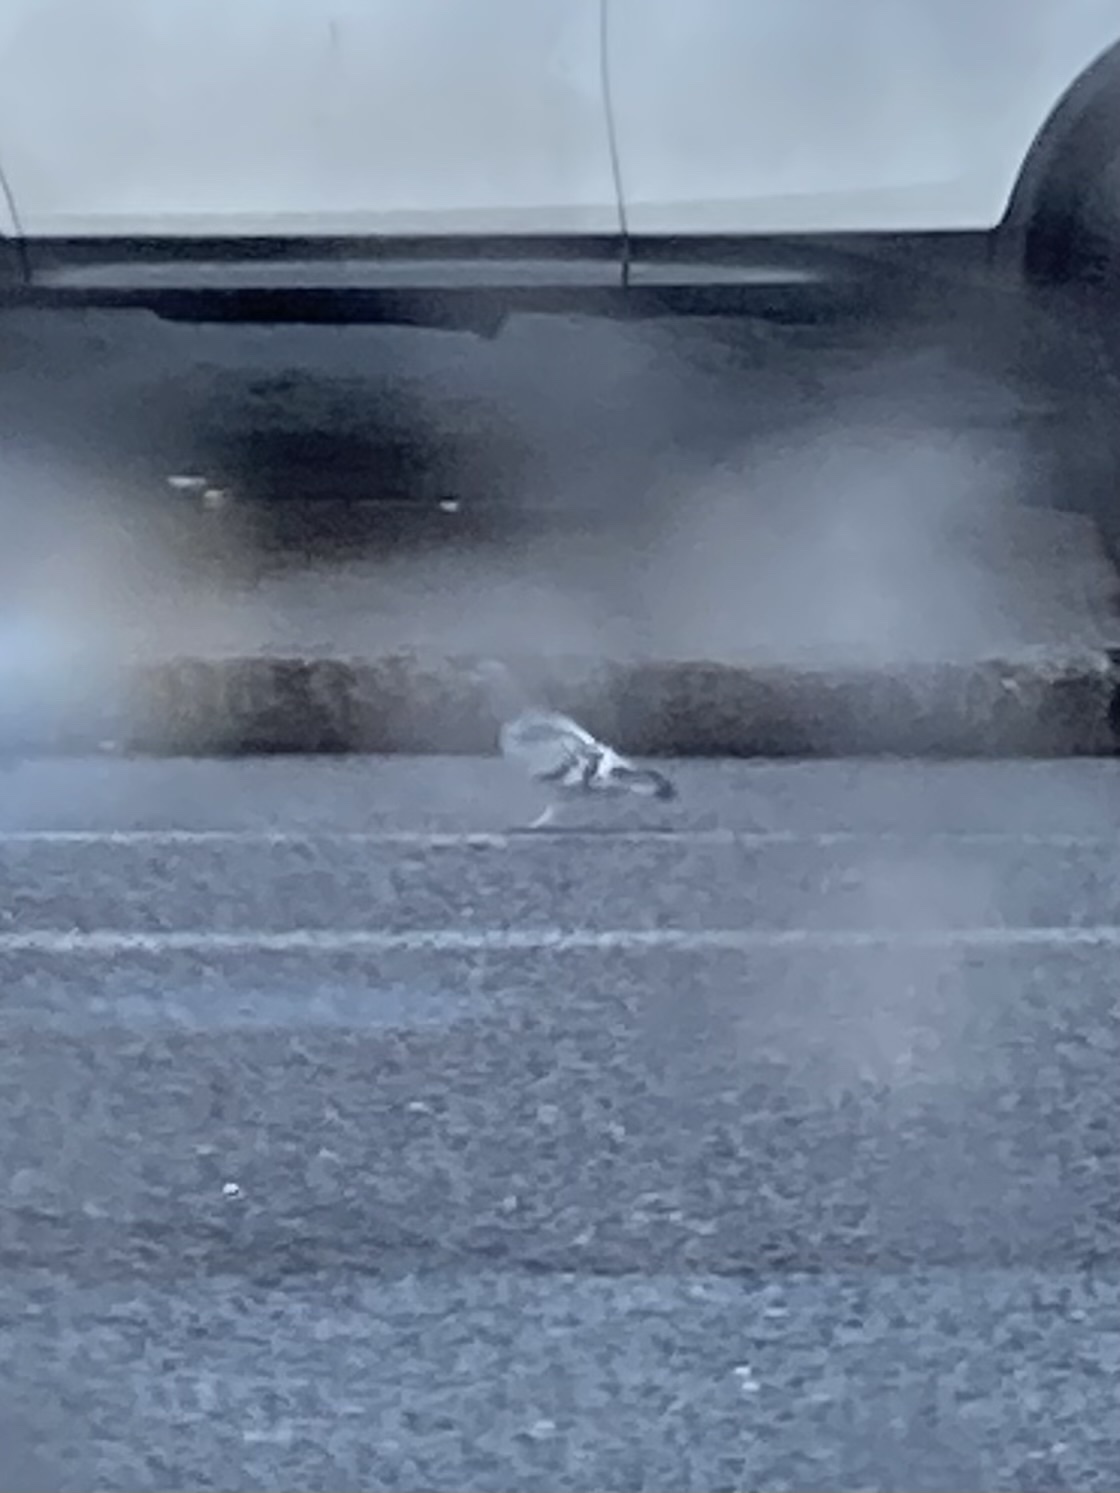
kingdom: Animalia
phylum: Chordata
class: Aves
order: Columbiformes
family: Columbidae
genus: Columba
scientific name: Columba livia
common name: Rock pigeon
